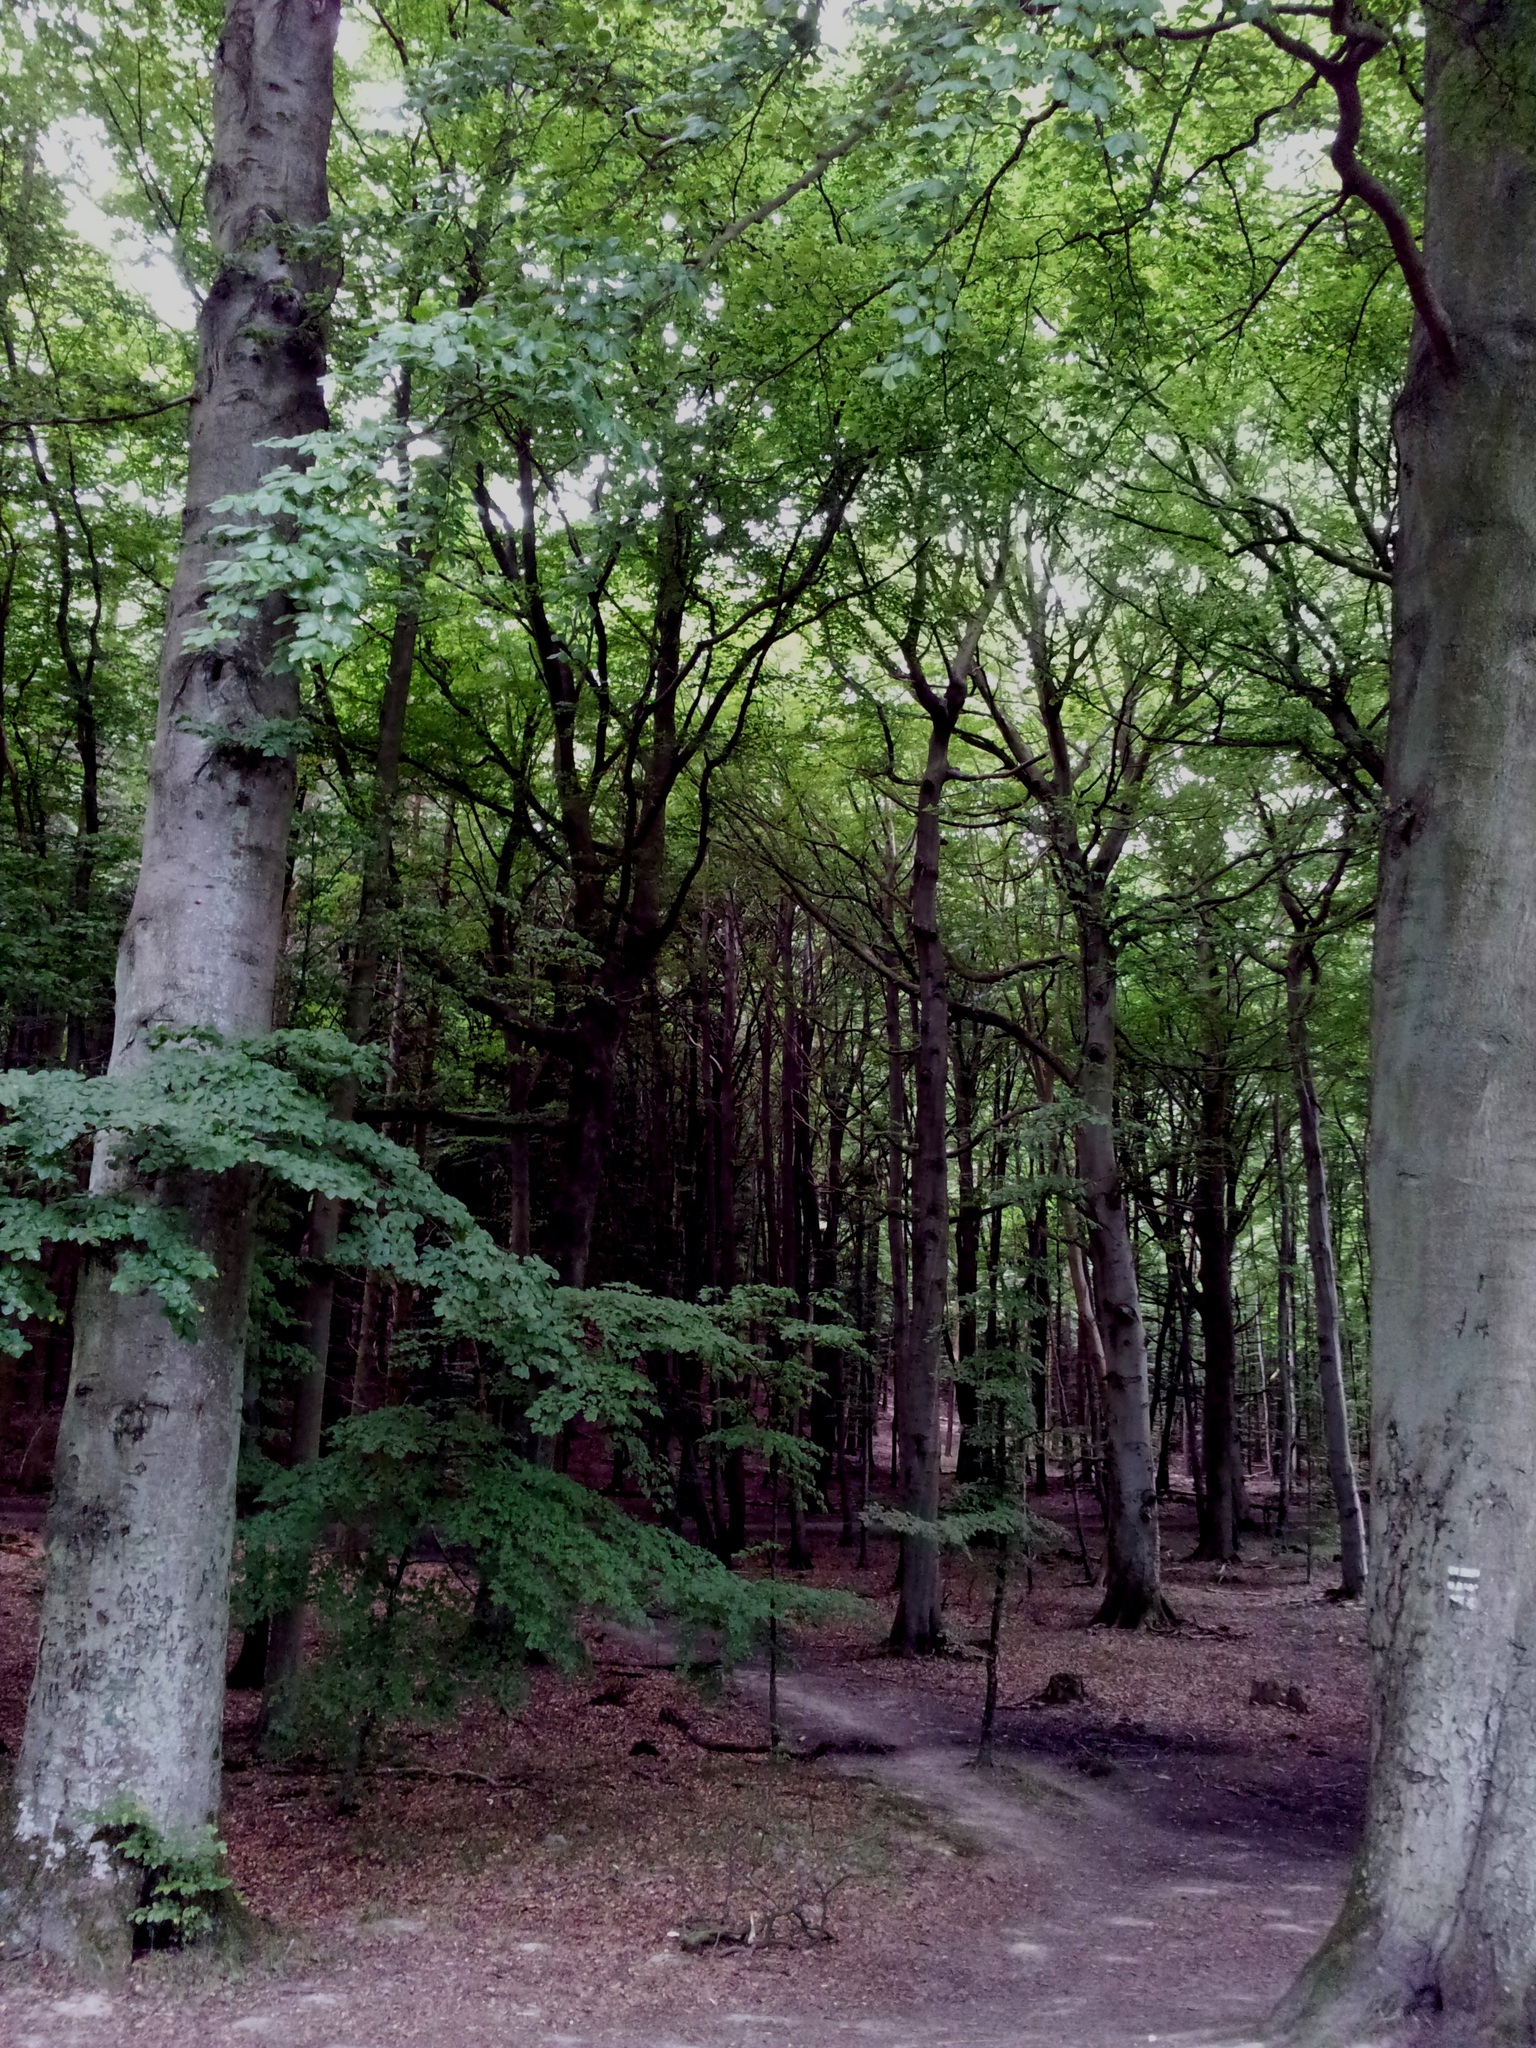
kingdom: Plantae
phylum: Tracheophyta
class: Magnoliopsida
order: Fagales
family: Fagaceae
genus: Fagus
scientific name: Fagus sylvatica
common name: Beech
